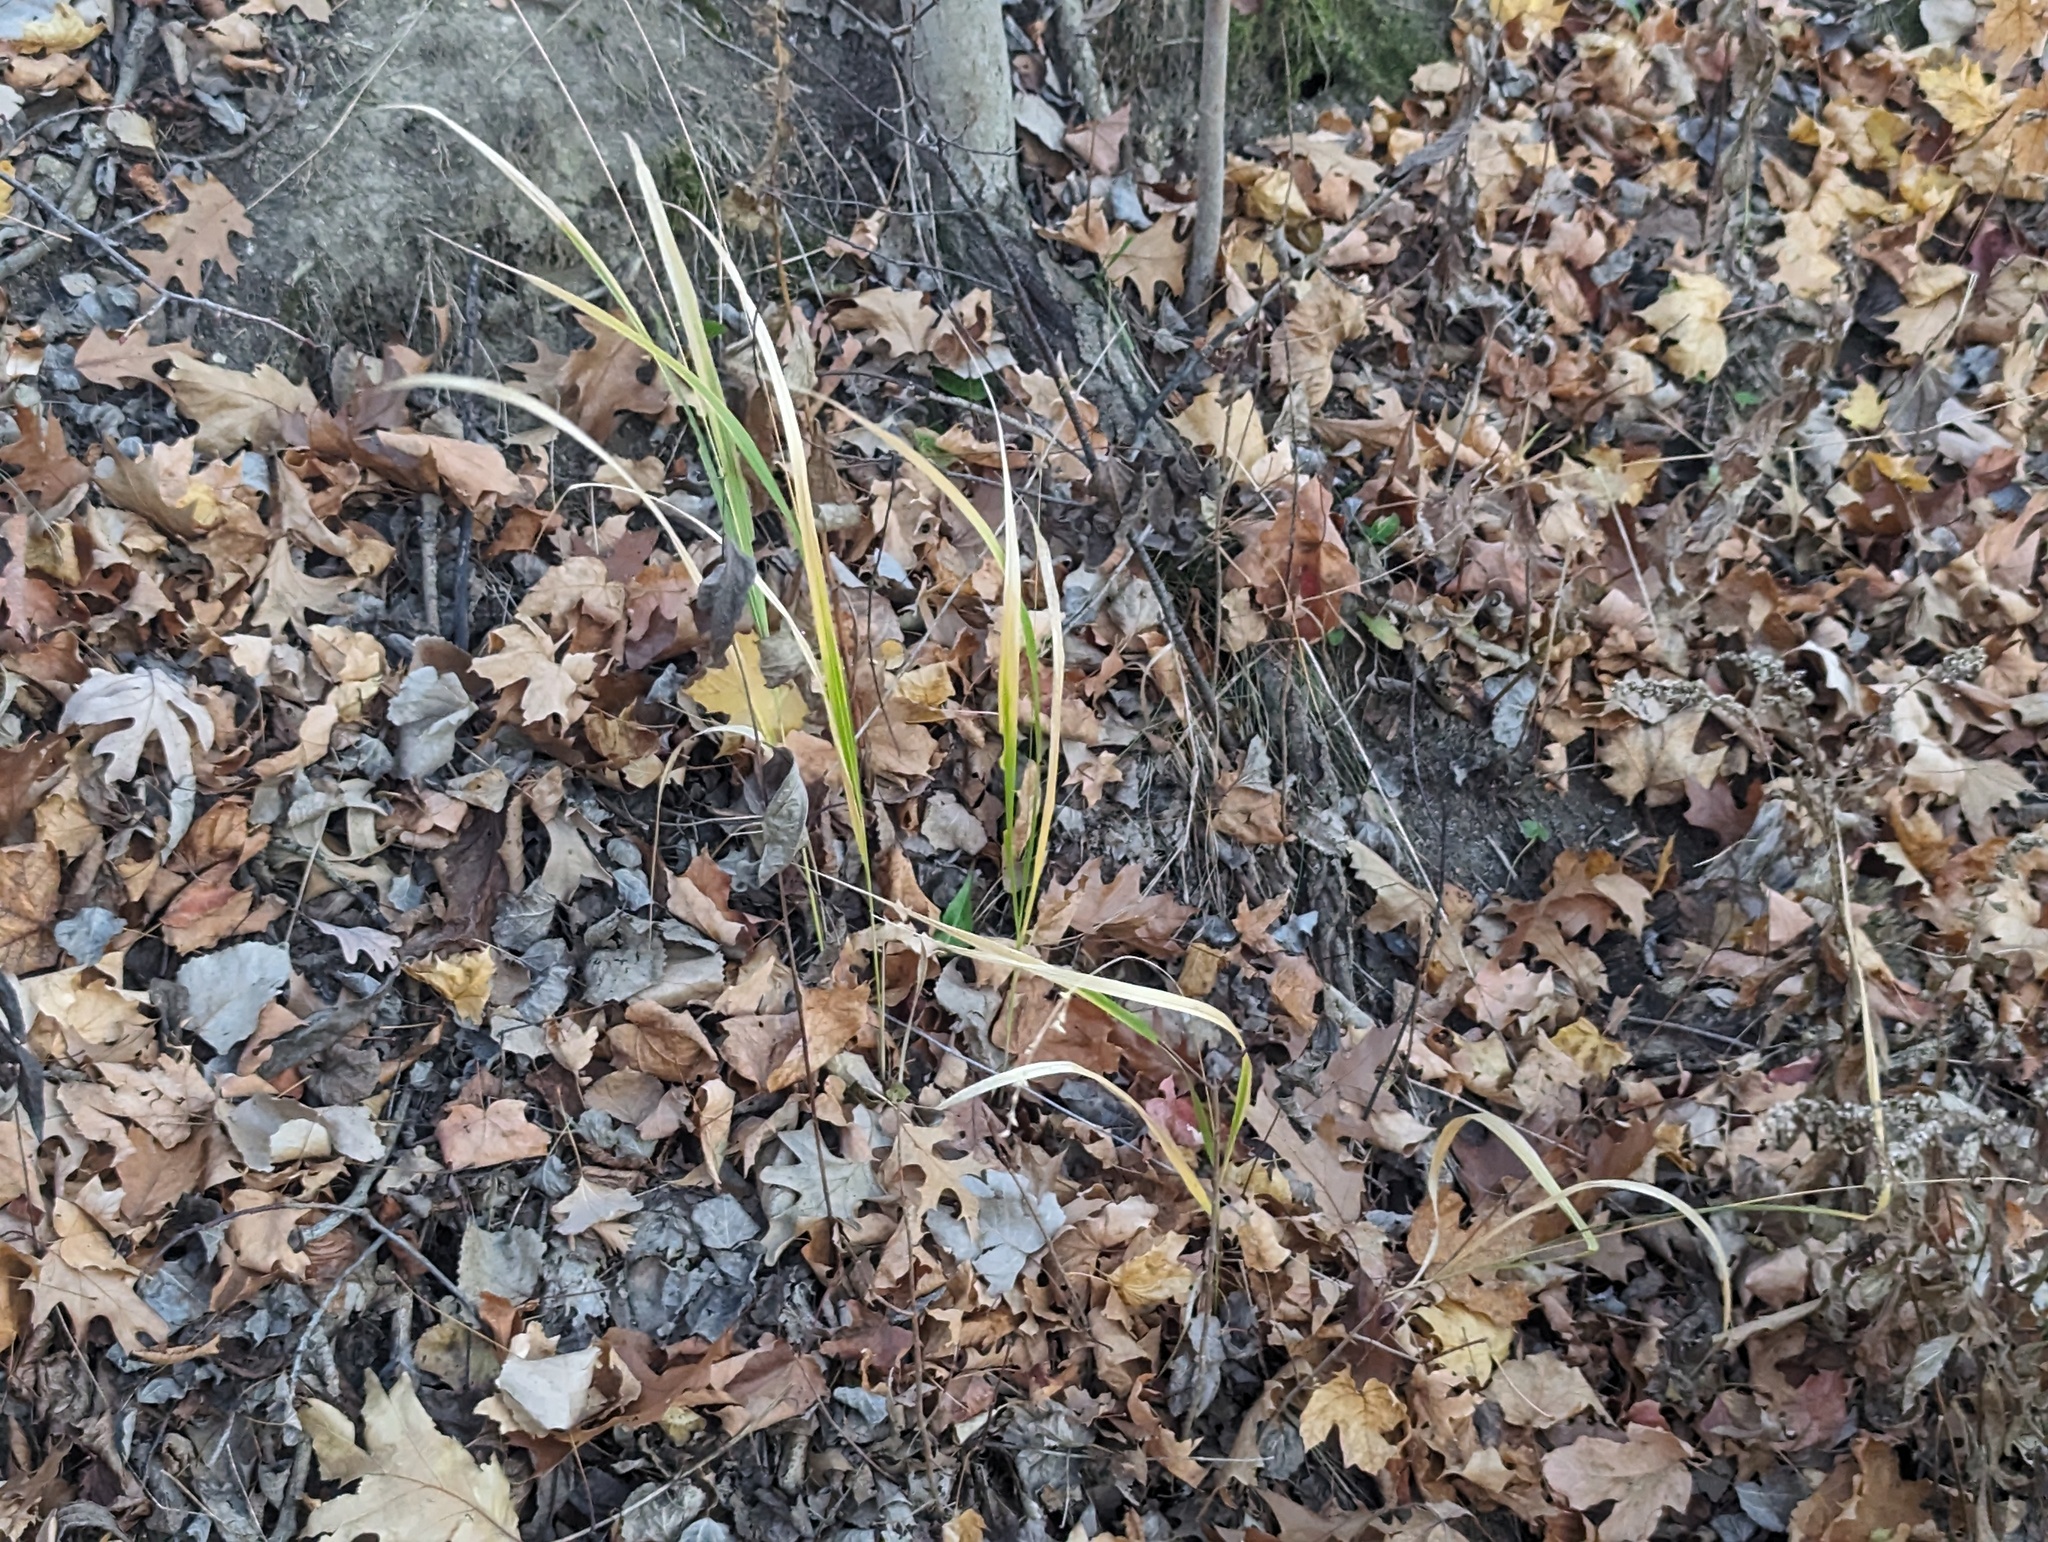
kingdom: Plantae
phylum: Tracheophyta
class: Liliopsida
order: Poales
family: Poaceae
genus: Diarrhena
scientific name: Diarrhena obovata
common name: Beakgrass
